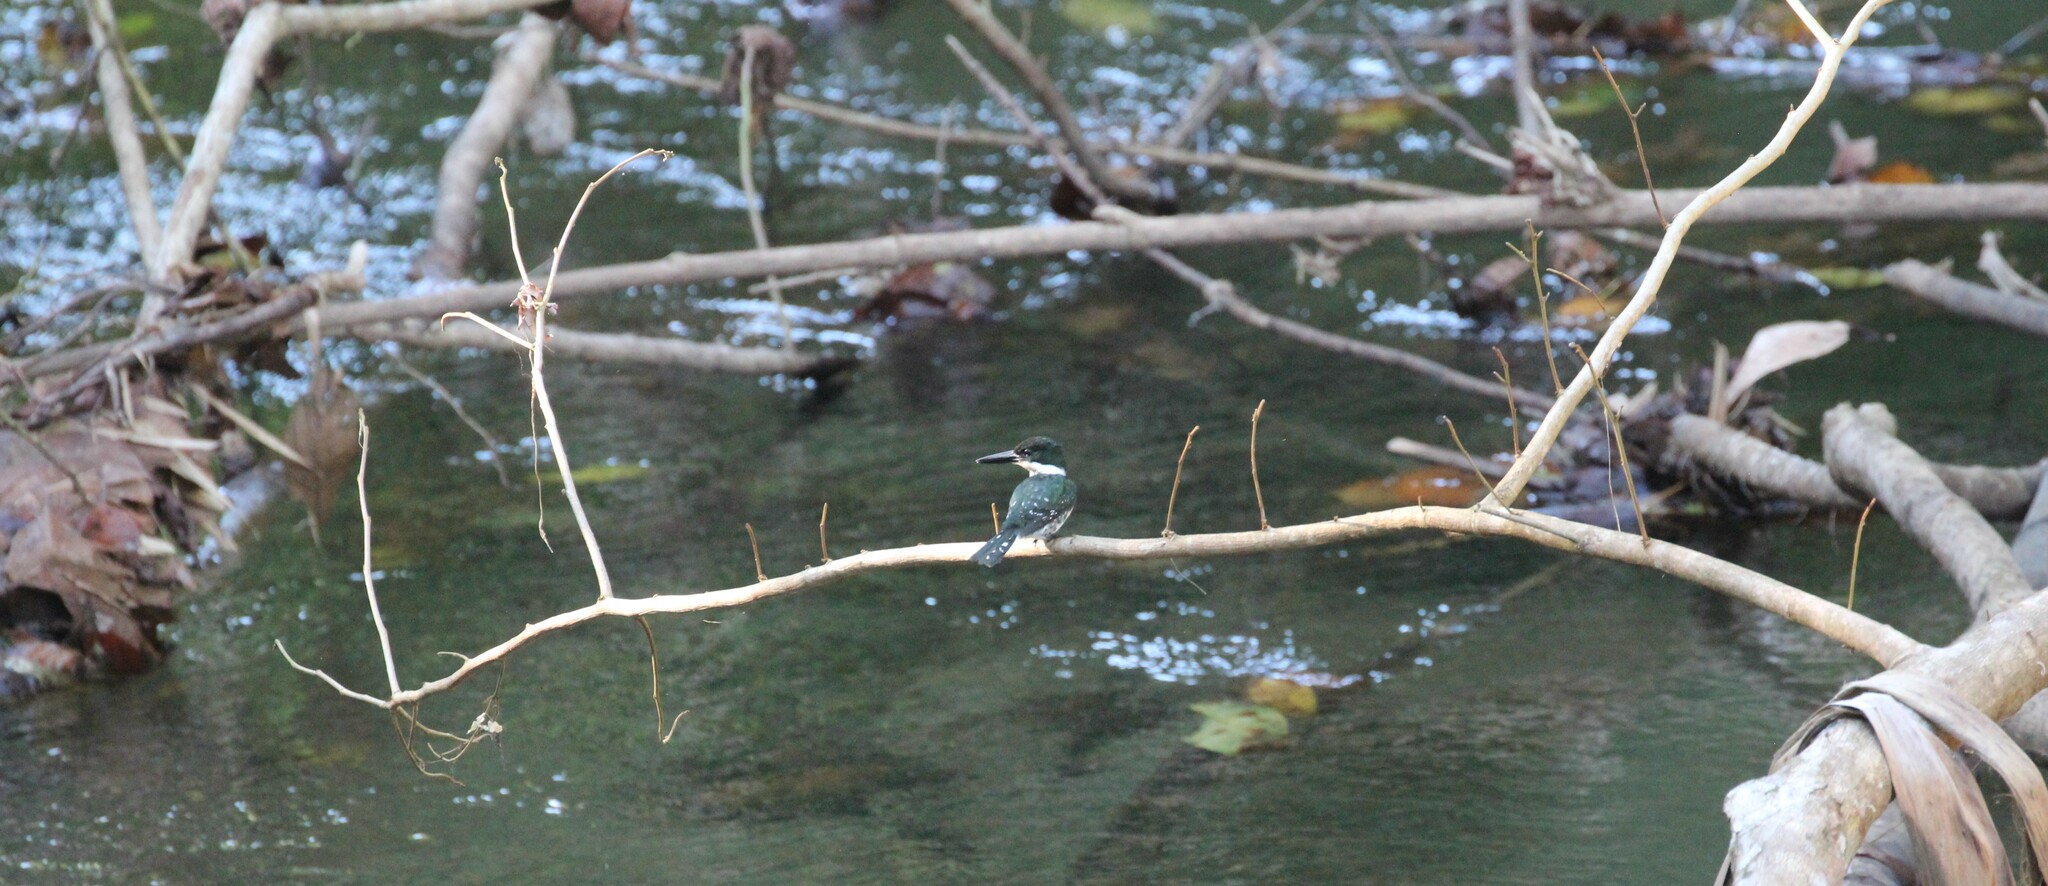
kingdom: Animalia
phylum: Chordata
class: Aves
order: Coraciiformes
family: Alcedinidae
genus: Chloroceryle
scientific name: Chloroceryle americana
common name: Green kingfisher
